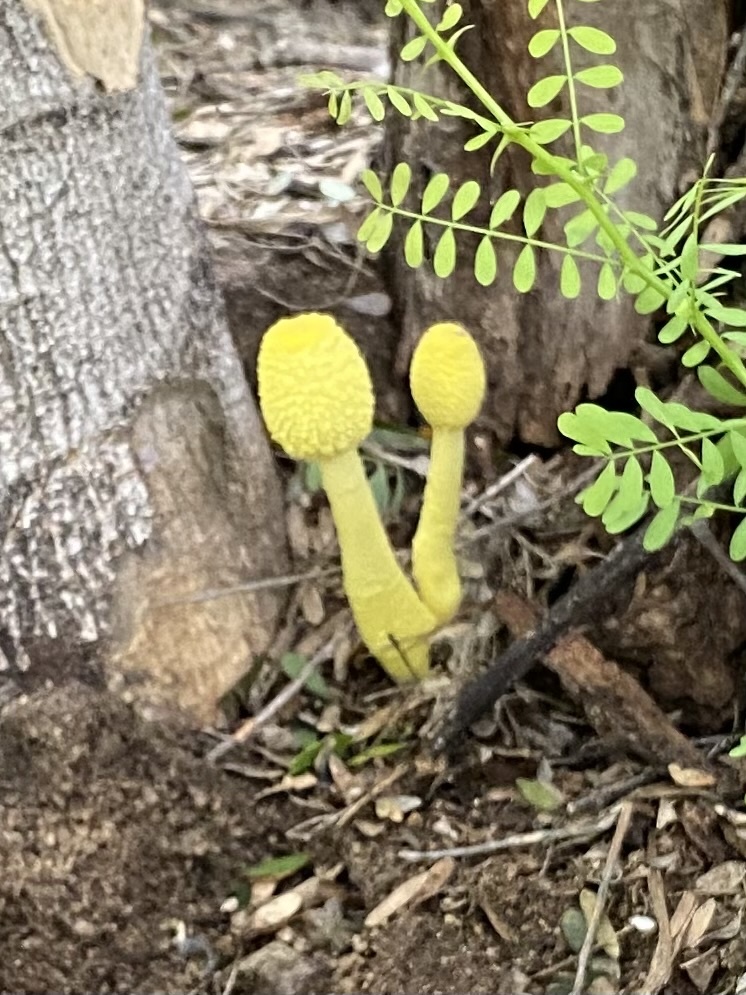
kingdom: Fungi
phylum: Basidiomycota
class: Agaricomycetes
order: Agaricales
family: Agaricaceae
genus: Leucocoprinus
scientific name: Leucocoprinus birnbaumii
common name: Plantpot dapperling
